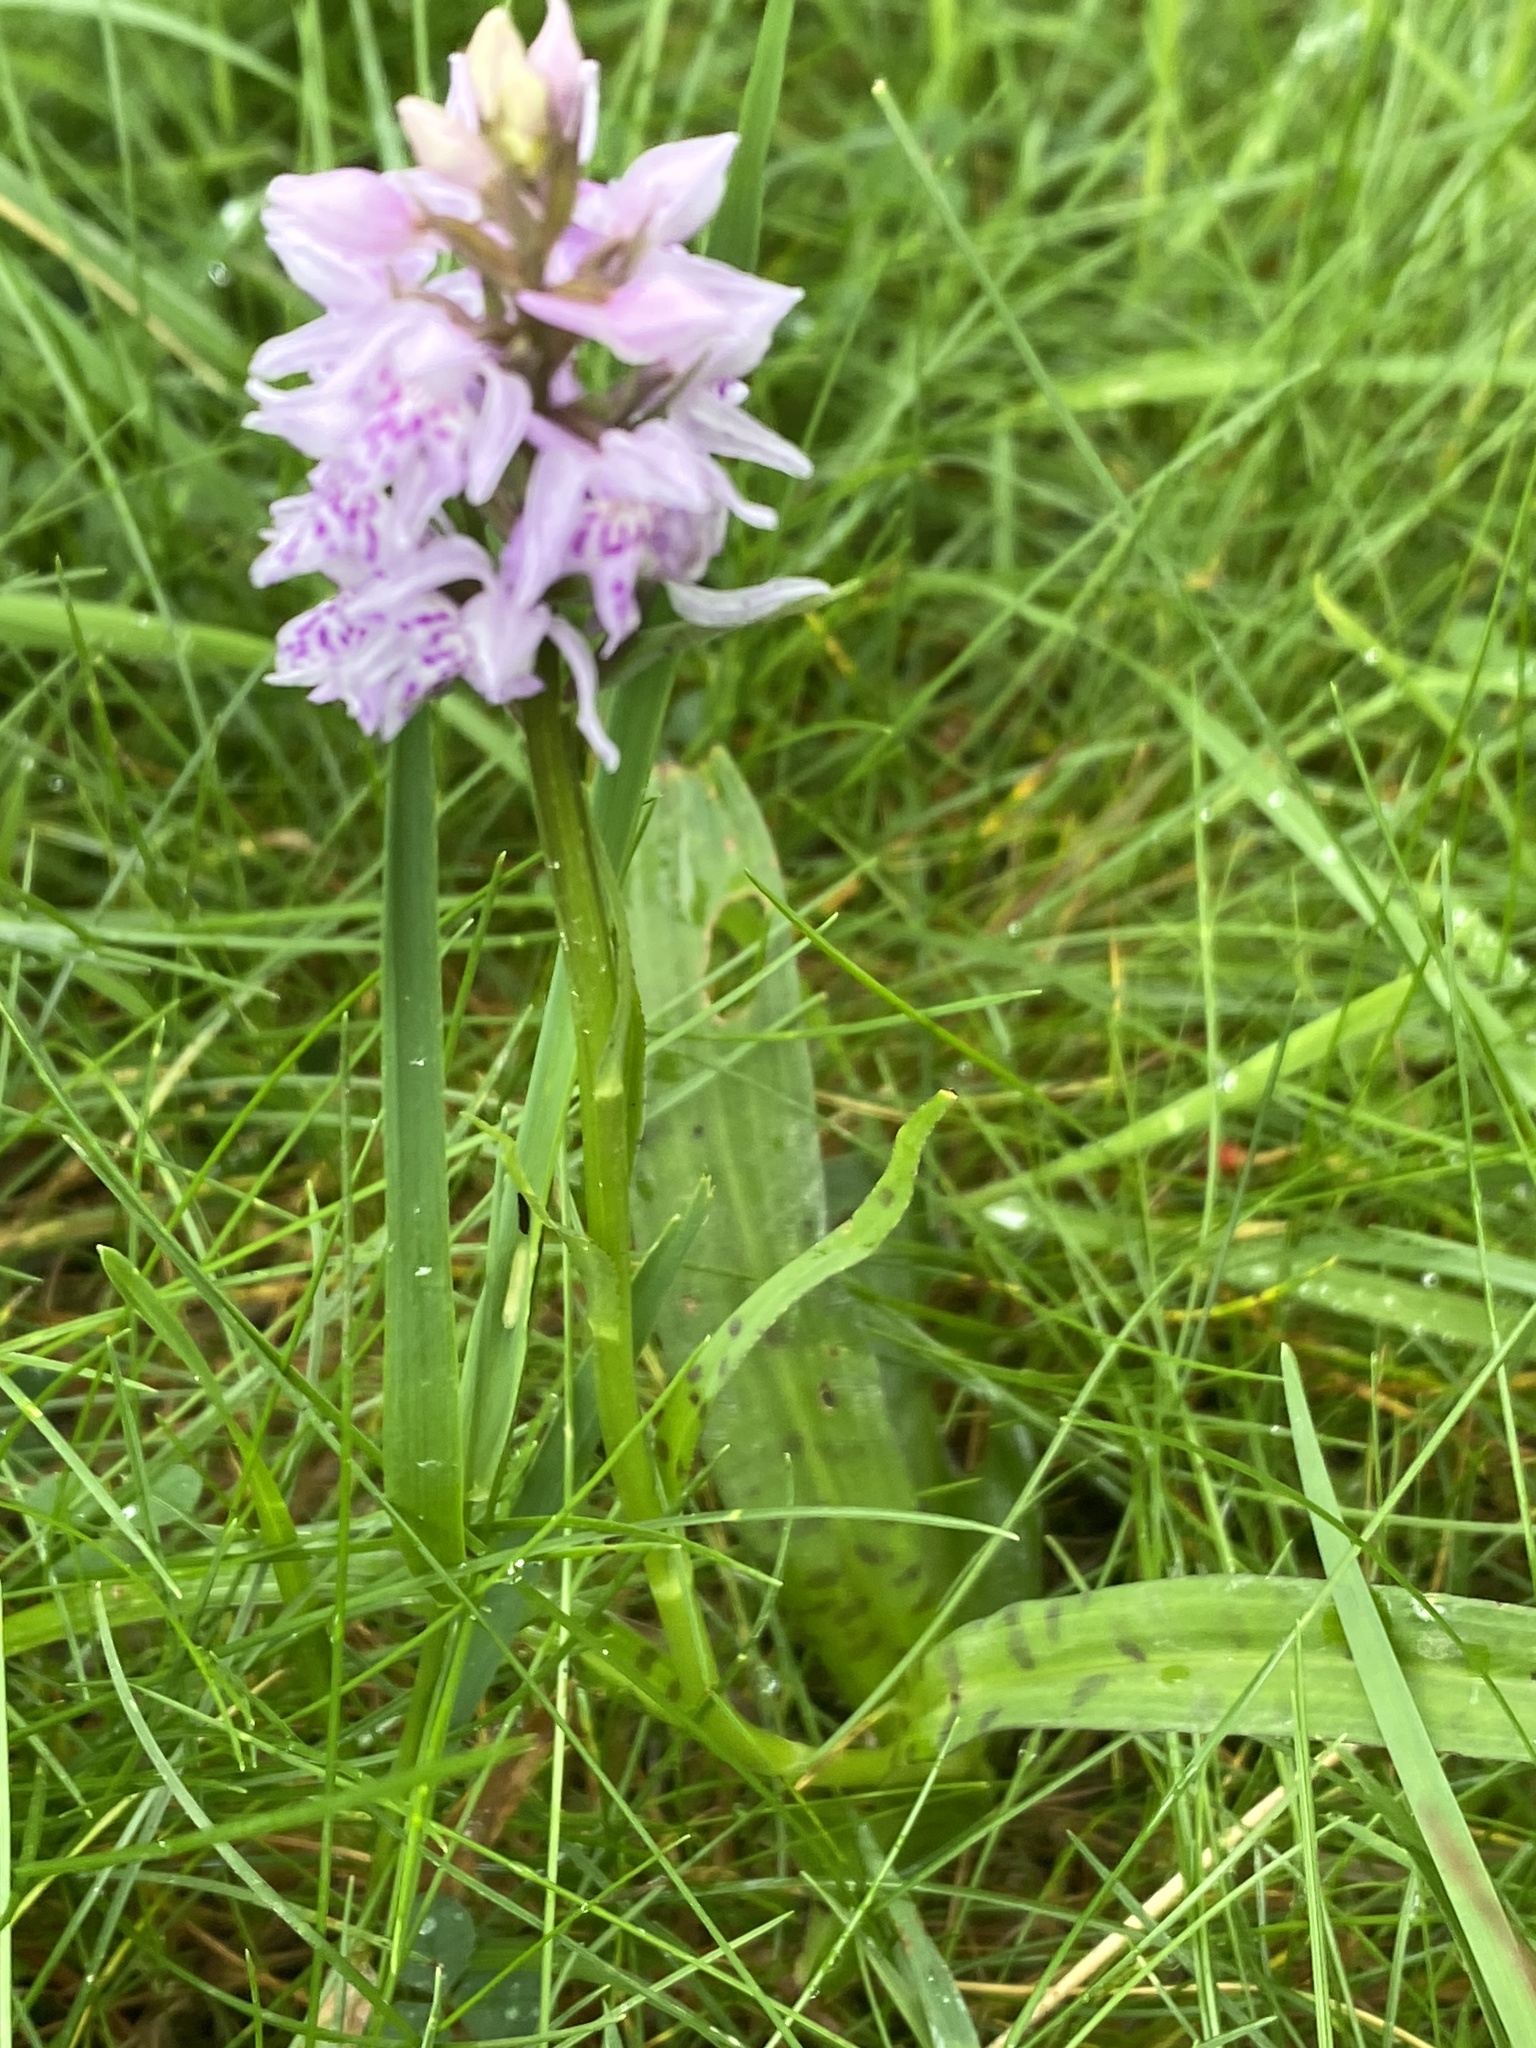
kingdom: Plantae
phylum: Tracheophyta
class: Liliopsida
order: Asparagales
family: Orchidaceae
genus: Dactylorhiza
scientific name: Dactylorhiza maculata
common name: Heath spotted-orchid
